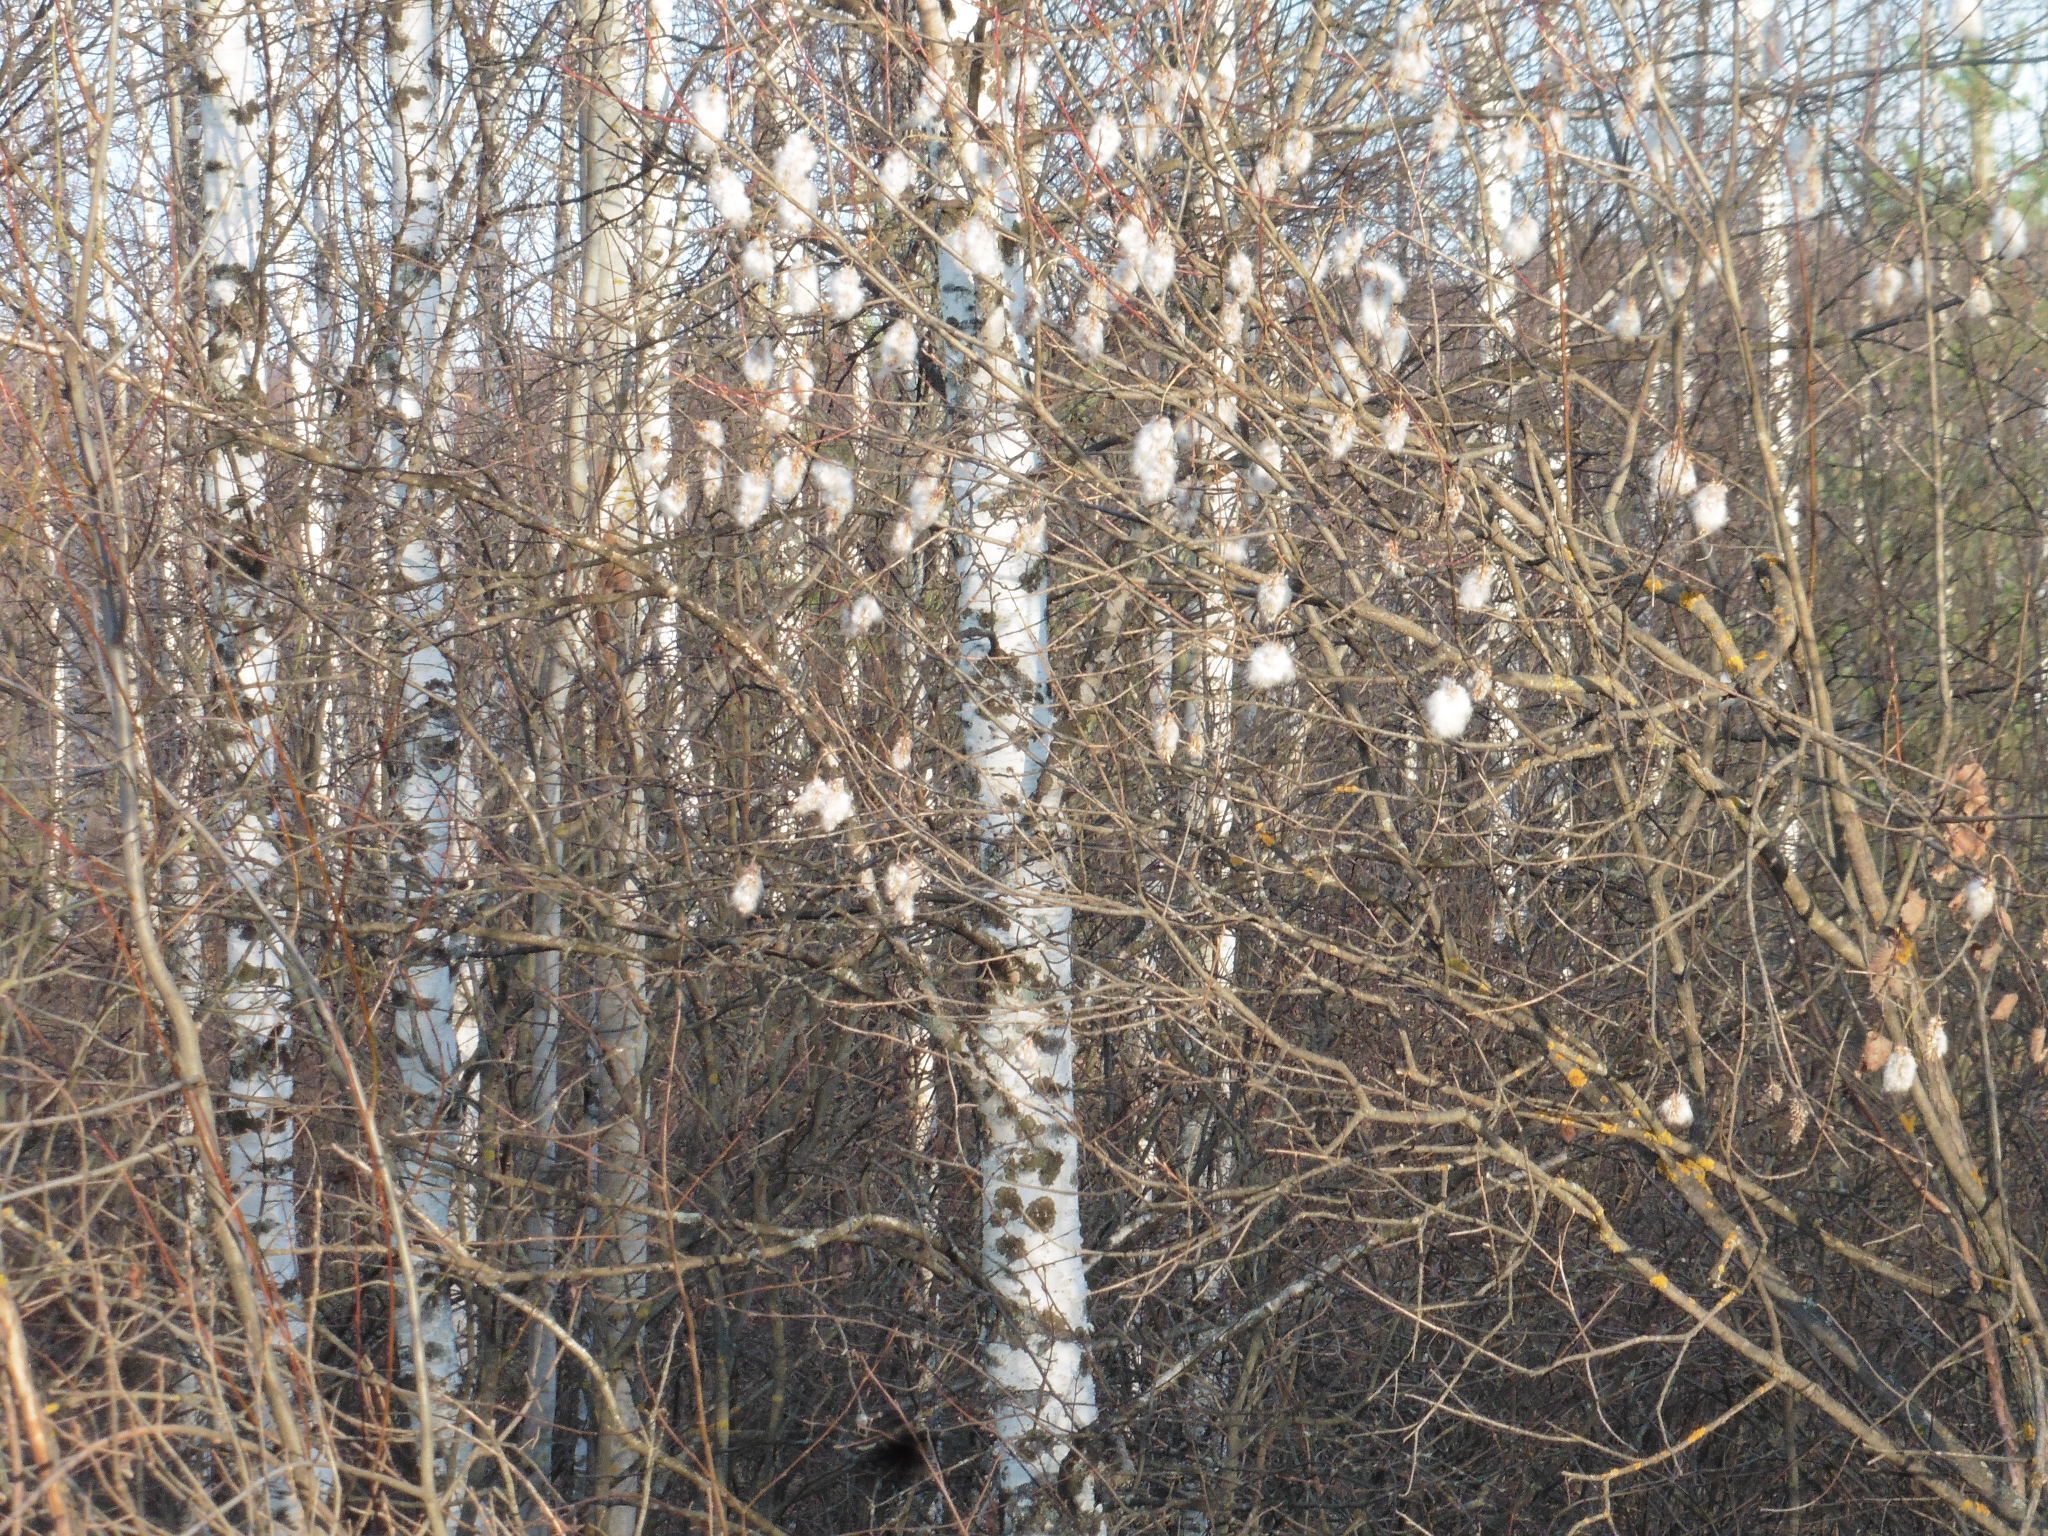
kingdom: Plantae
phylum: Tracheophyta
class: Magnoliopsida
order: Malpighiales
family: Salicaceae
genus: Salix
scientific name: Salix pentandra
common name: Bay willow
